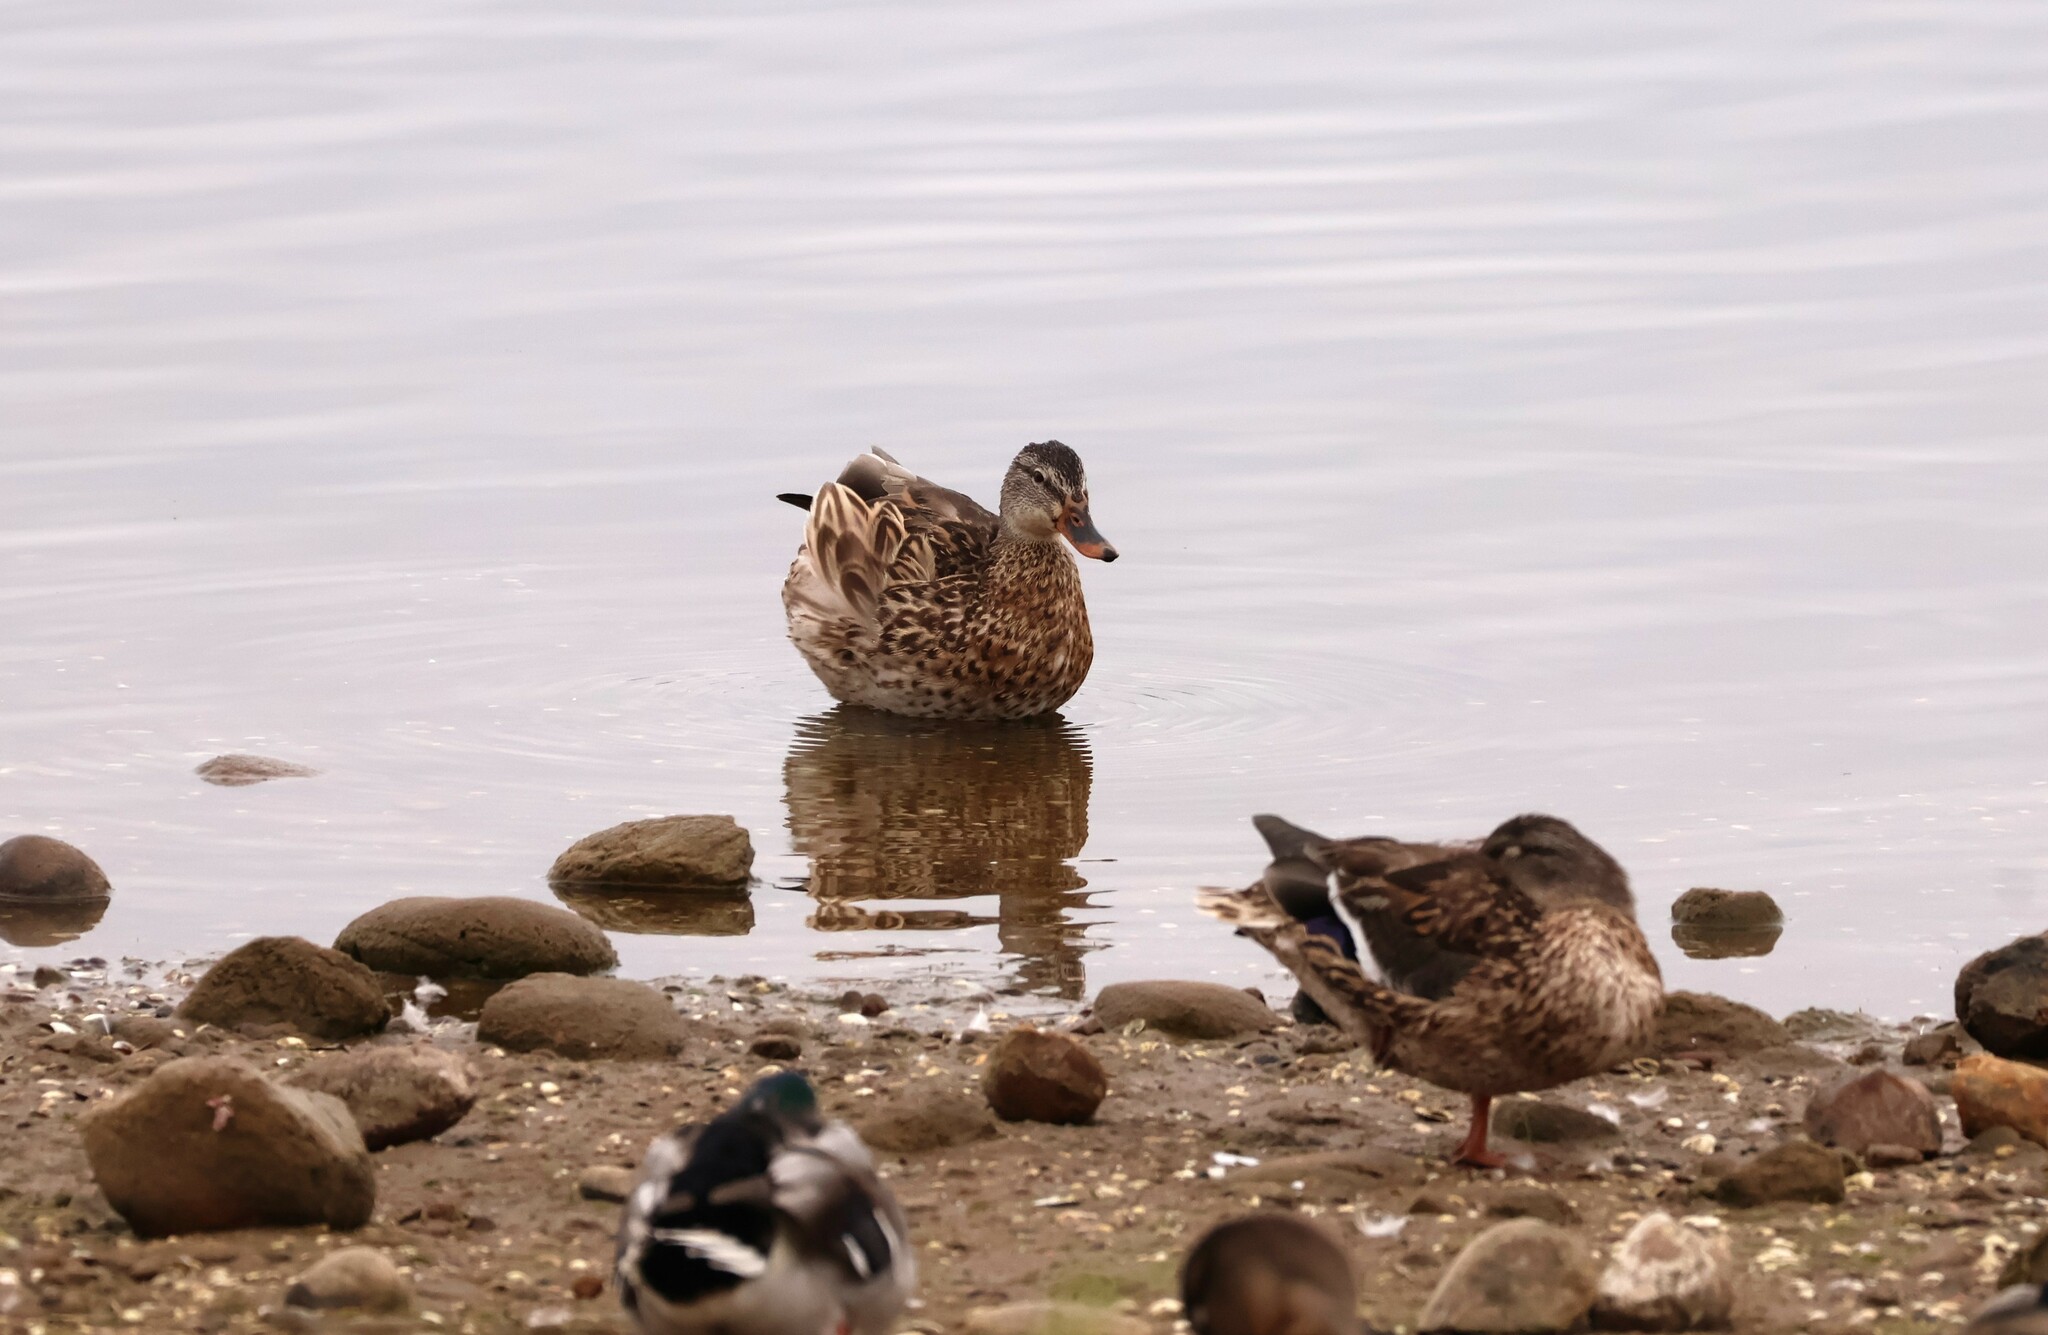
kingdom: Animalia
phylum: Chordata
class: Aves
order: Anseriformes
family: Anatidae
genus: Anas
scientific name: Anas platyrhynchos
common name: Mallard
